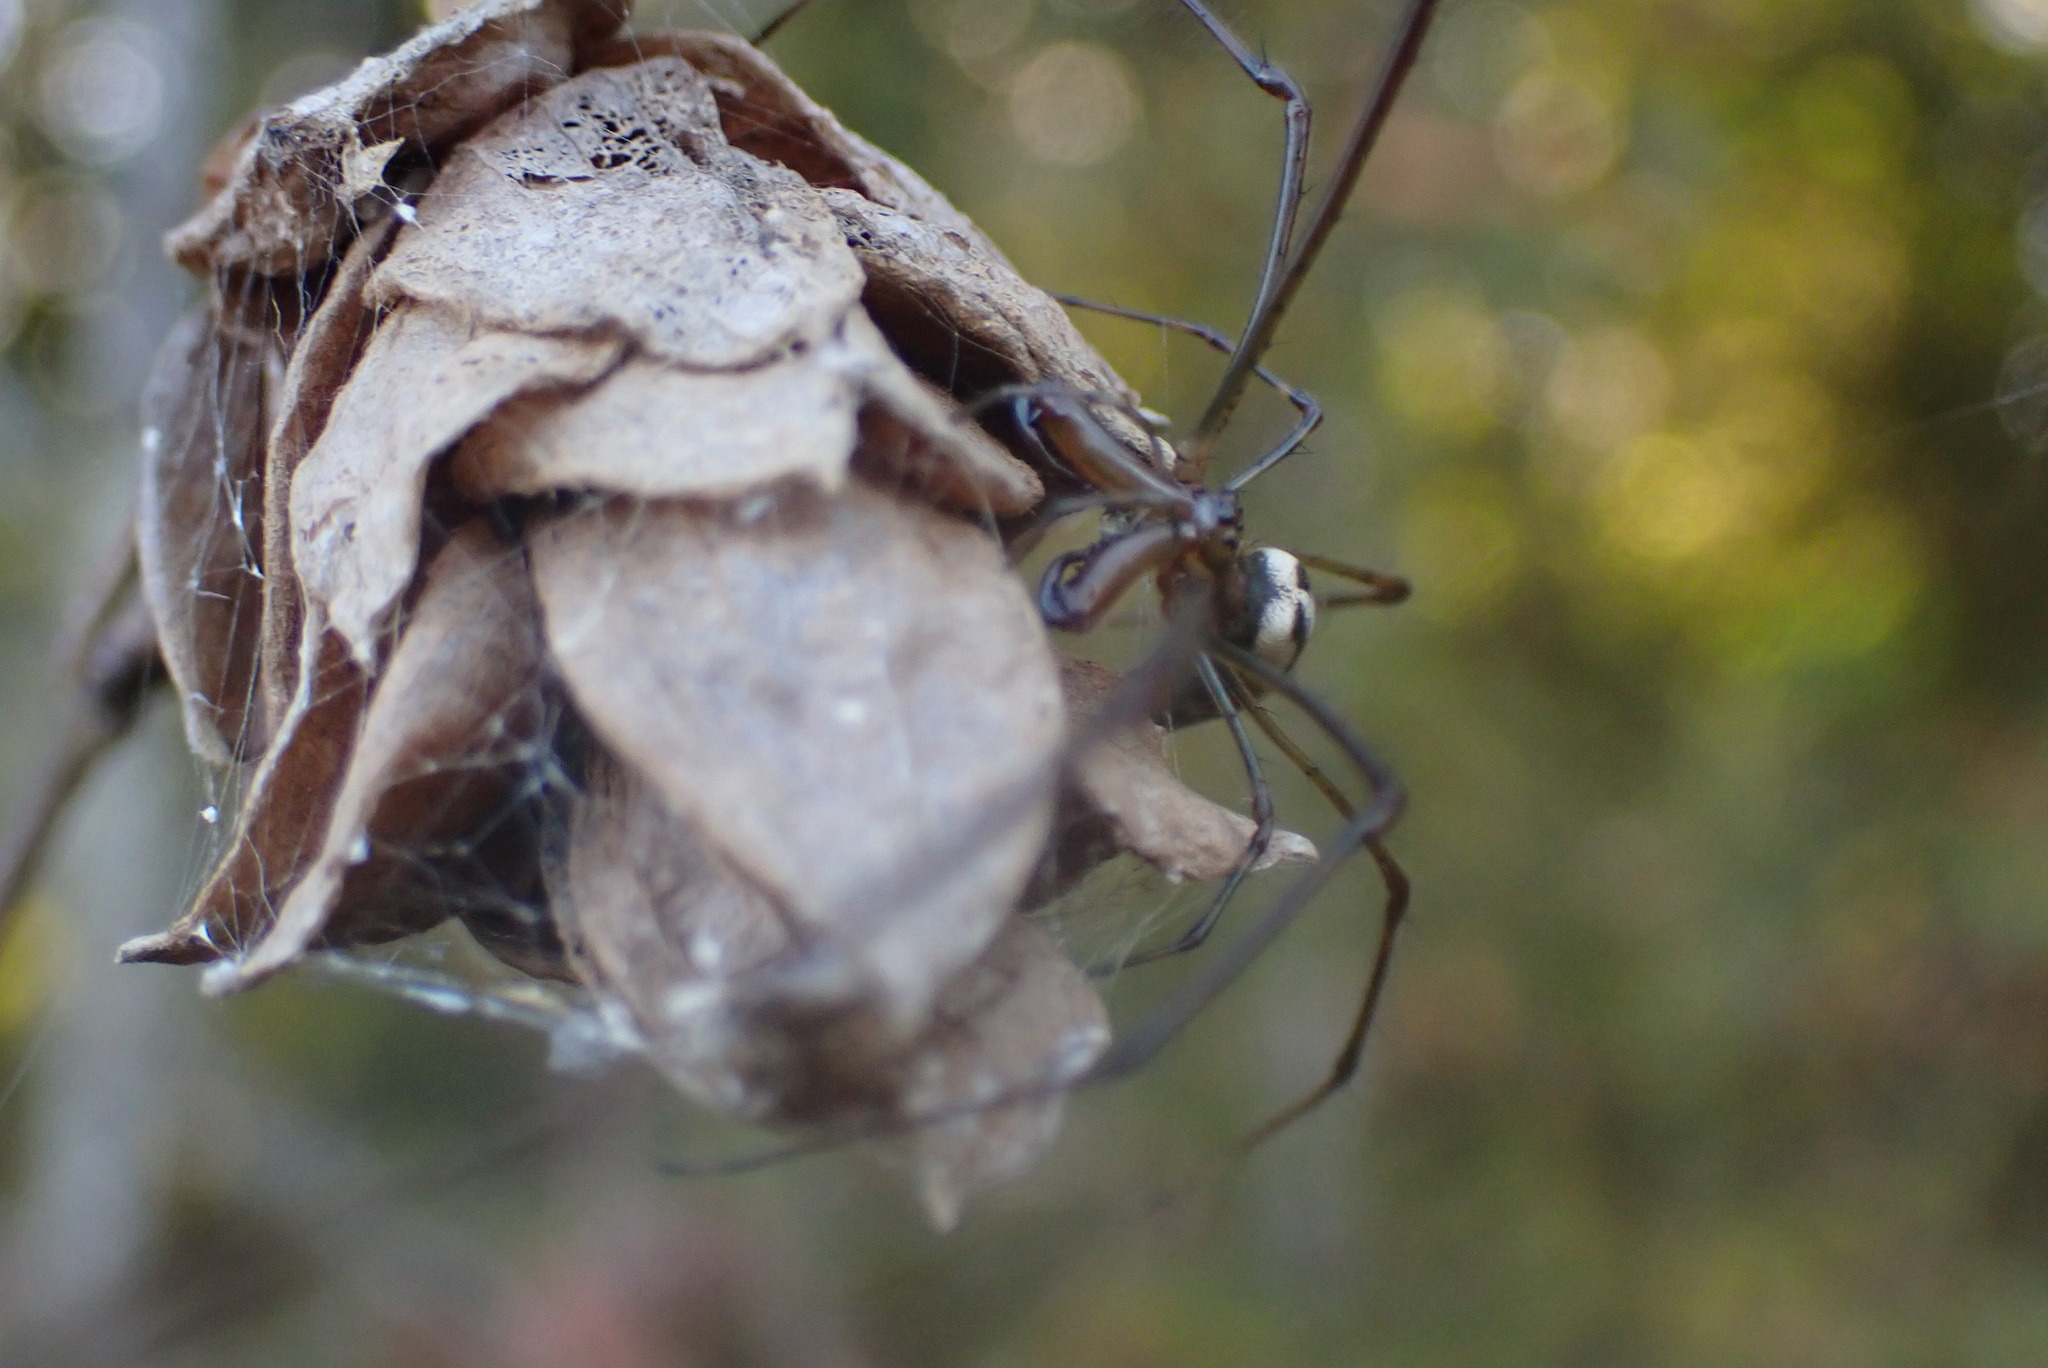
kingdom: Animalia
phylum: Arthropoda
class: Arachnida
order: Araneae
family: Tetragnathidae
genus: Tetragnatha
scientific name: Tetragnatha elongata
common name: Longjawed orb weavers
